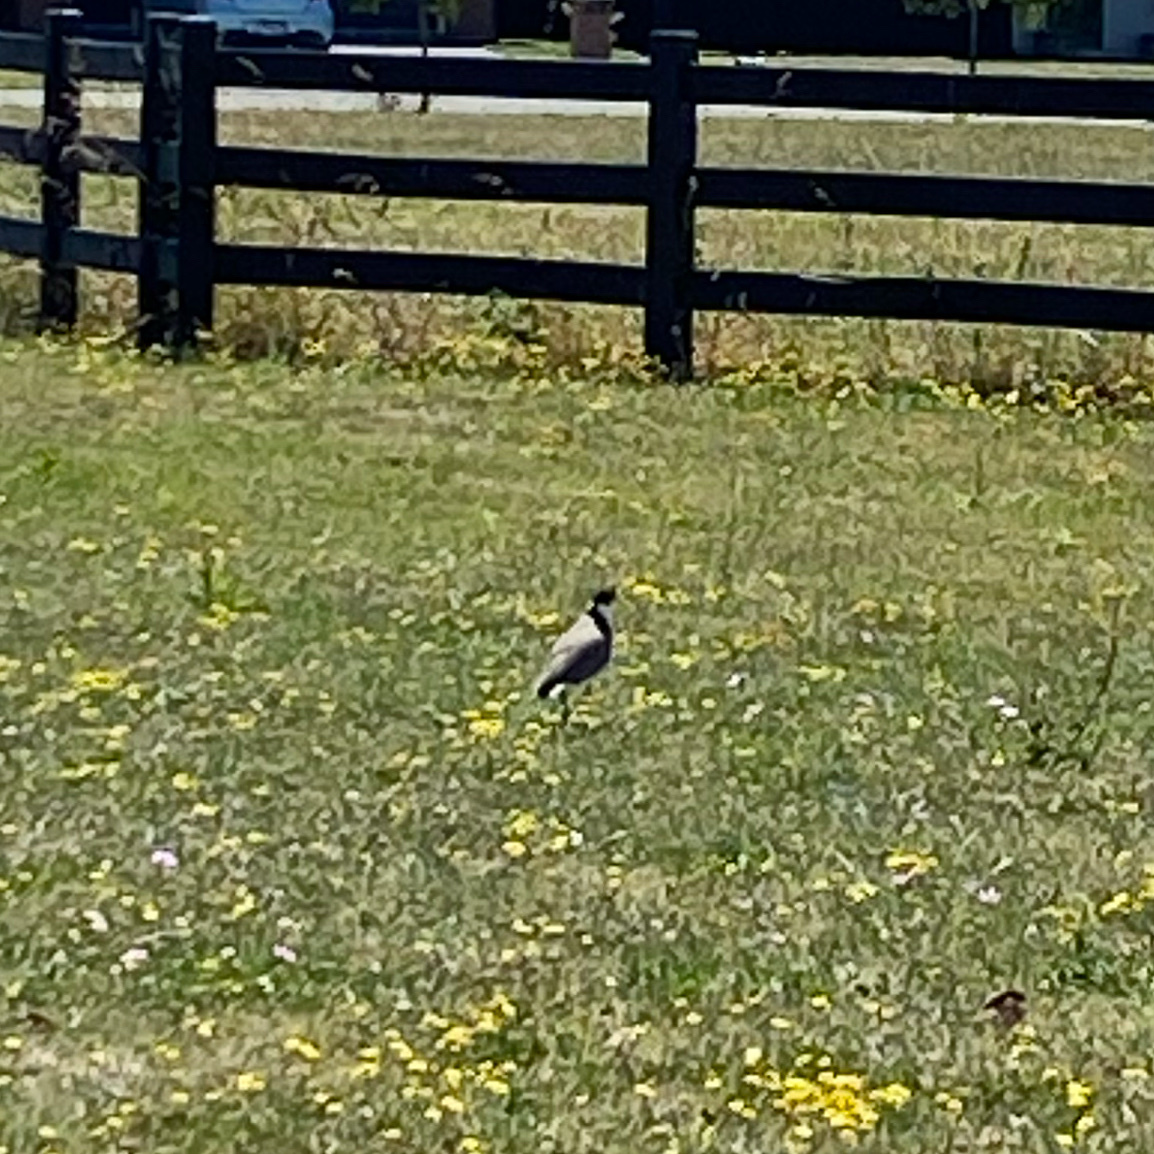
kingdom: Animalia
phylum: Chordata
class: Aves
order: Charadriiformes
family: Charadriidae
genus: Vanellus
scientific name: Vanellus miles
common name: Masked lapwing
